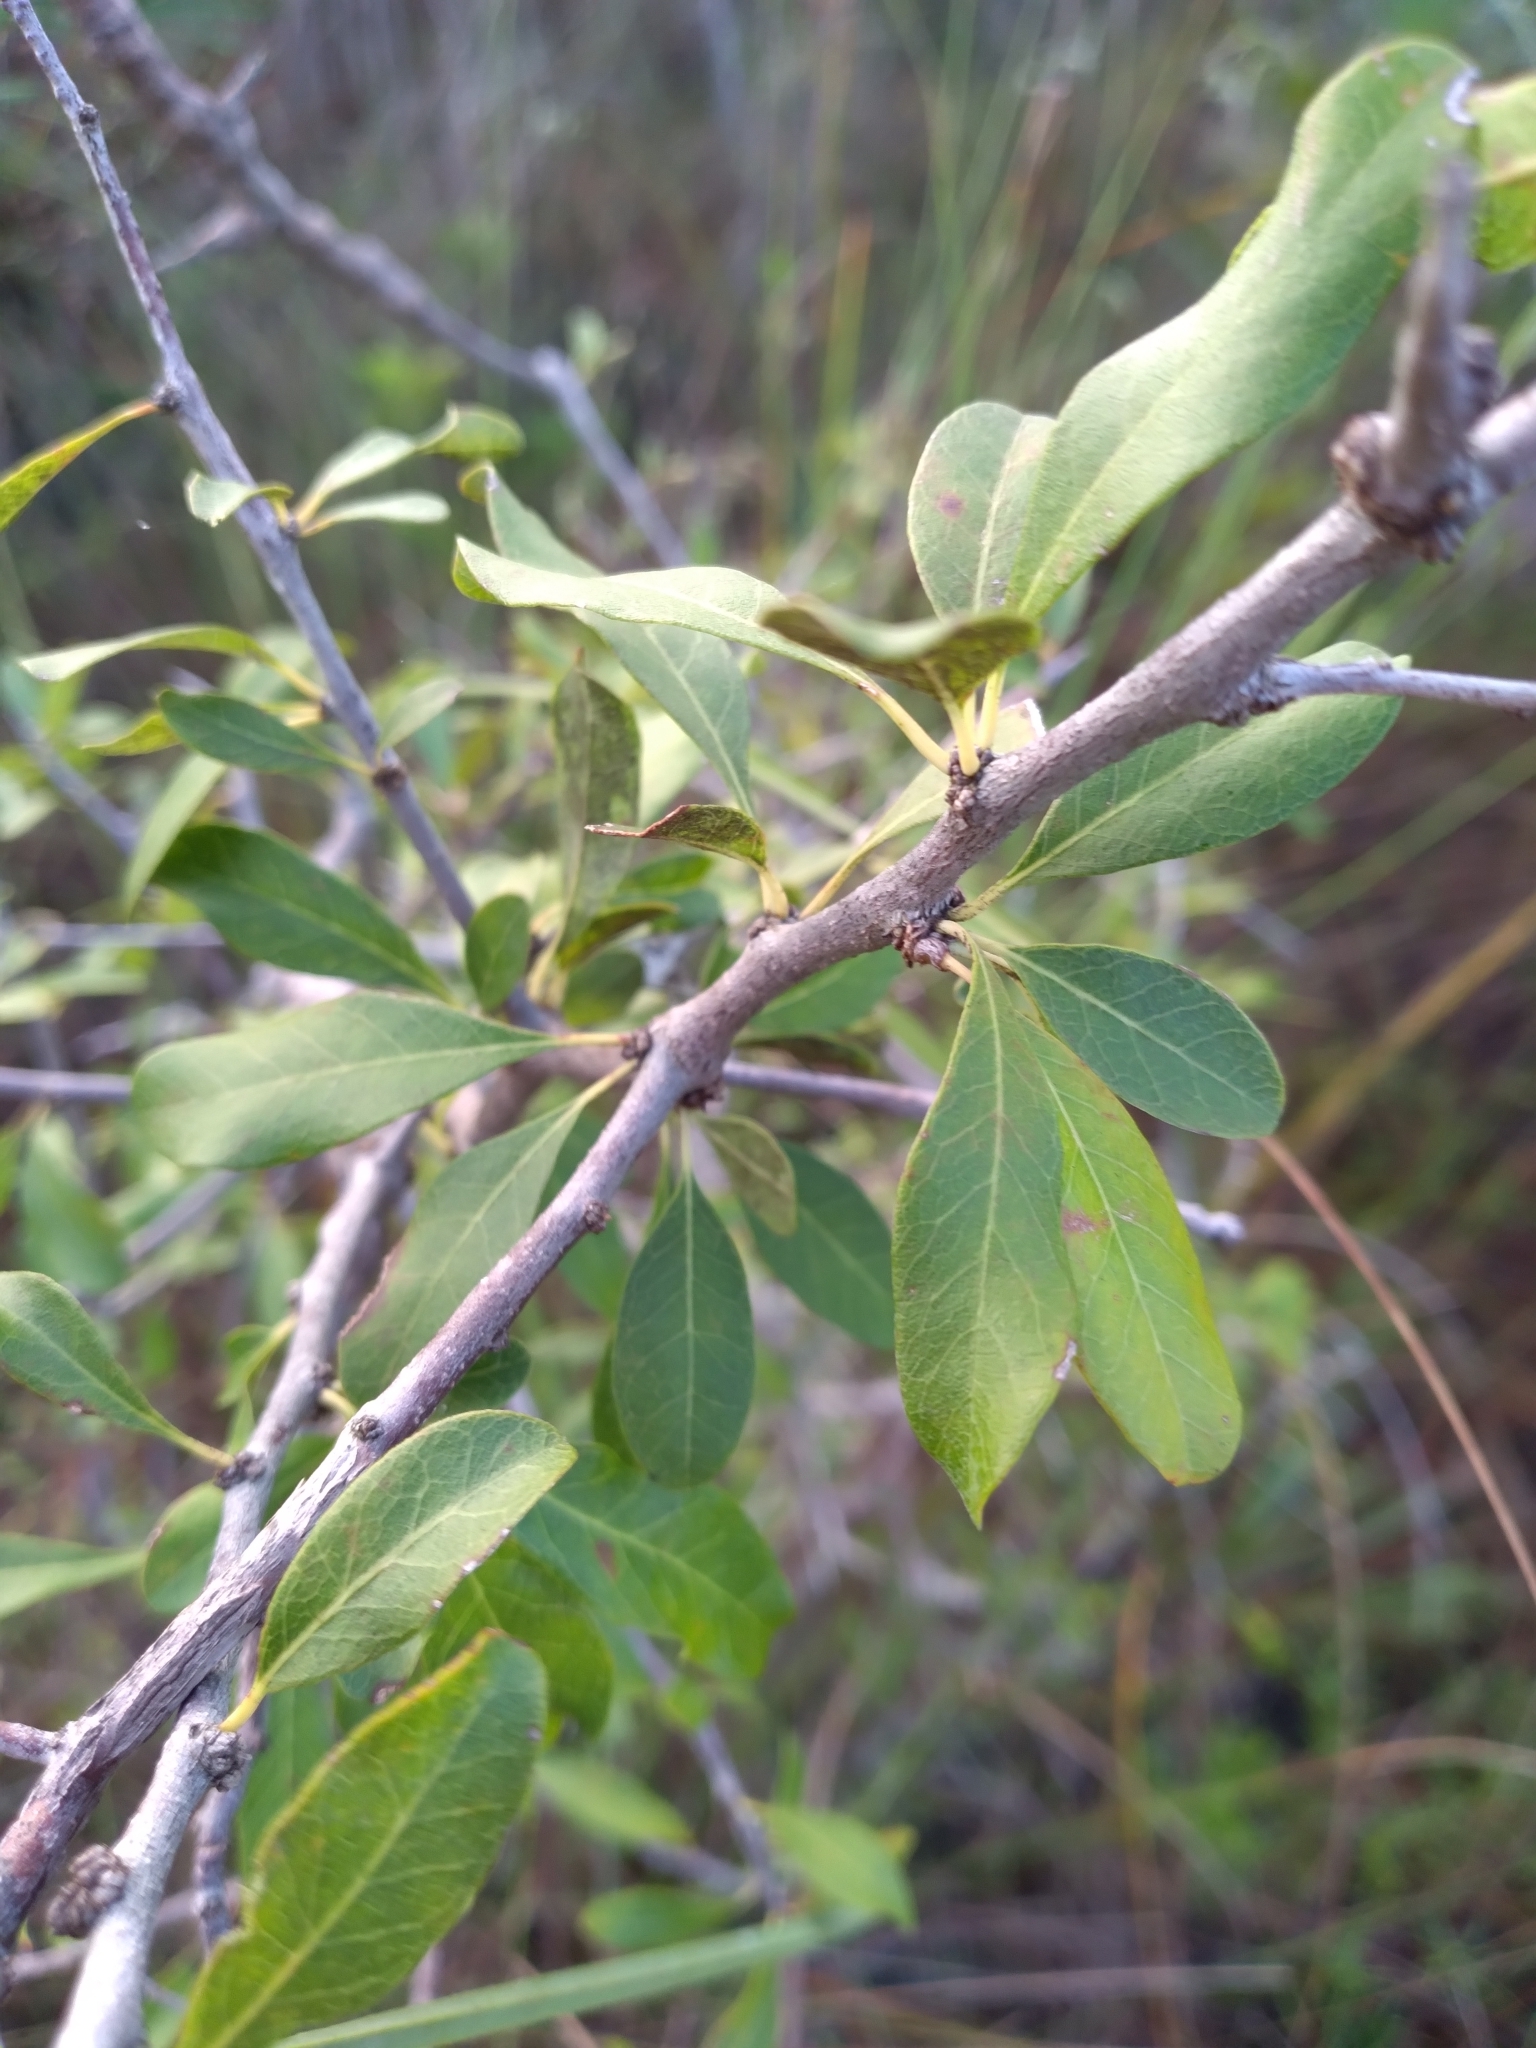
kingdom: Plantae
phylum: Tracheophyta
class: Magnoliopsida
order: Ericales
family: Sapotaceae
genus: Sideroxylon
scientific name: Sideroxylon reclinatum
